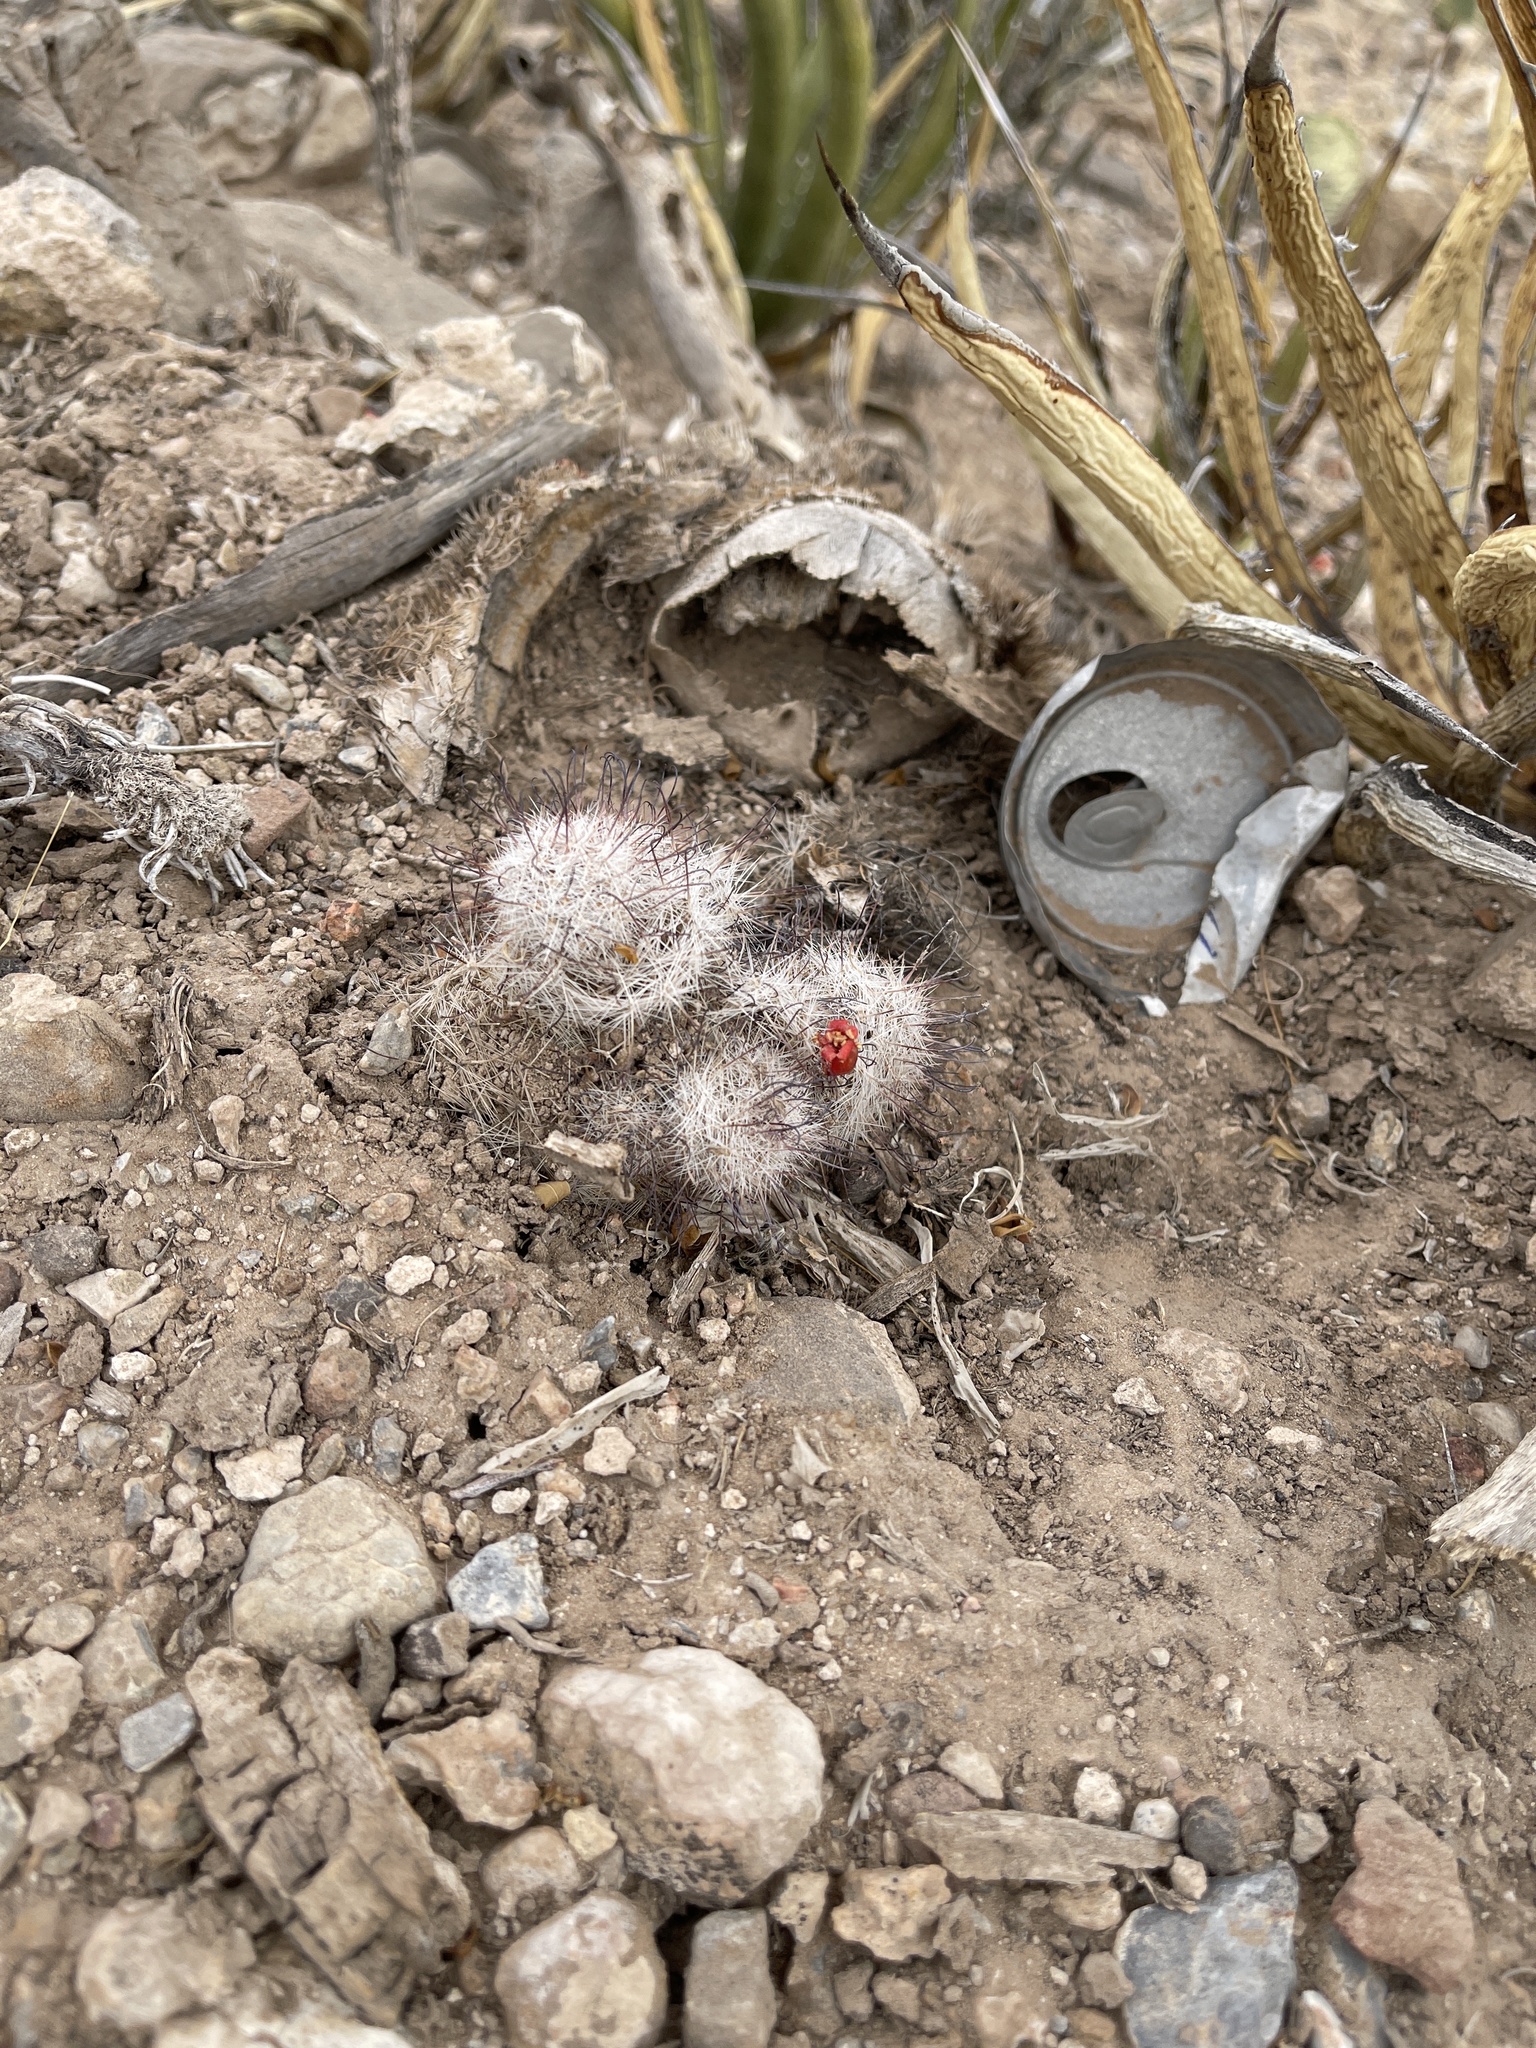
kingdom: Plantae
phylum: Tracheophyta
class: Magnoliopsida
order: Caryophyllales
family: Cactaceae
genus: Cochemiea
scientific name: Cochemiea grahamii
